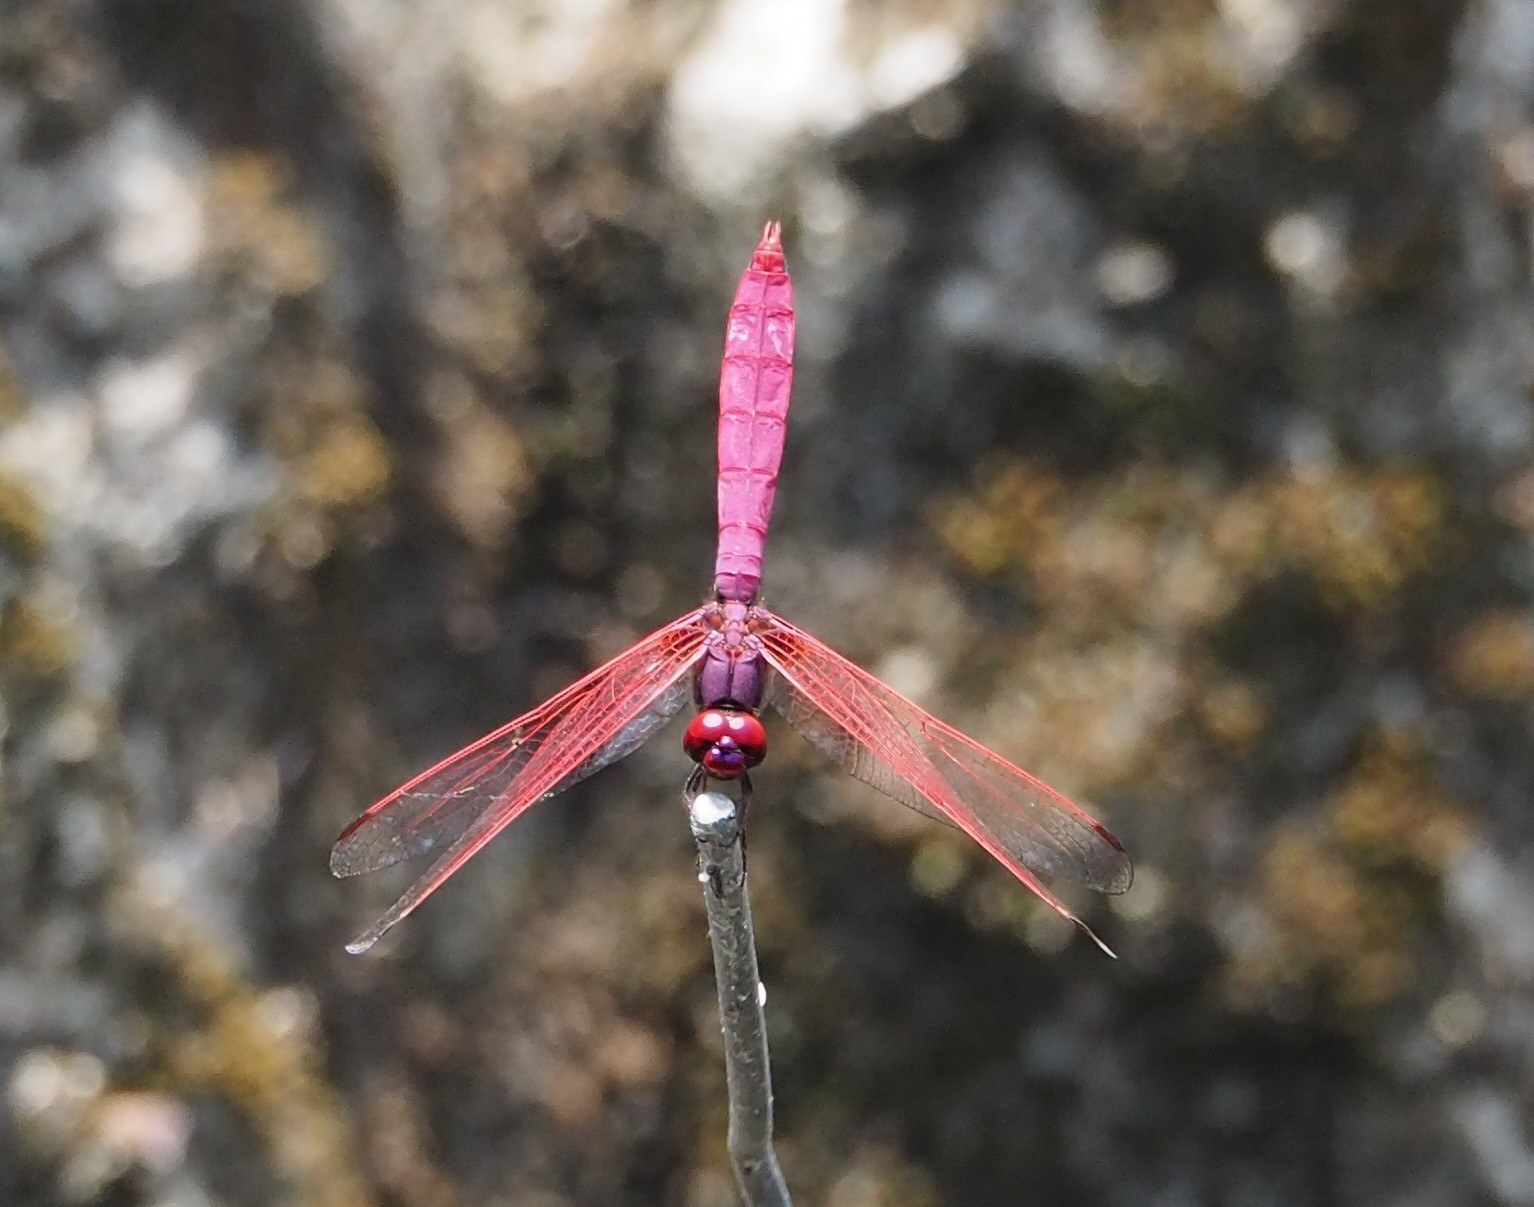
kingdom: Animalia
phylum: Arthropoda
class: Insecta
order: Odonata
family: Libellulidae
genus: Trithemis
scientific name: Trithemis aurora
